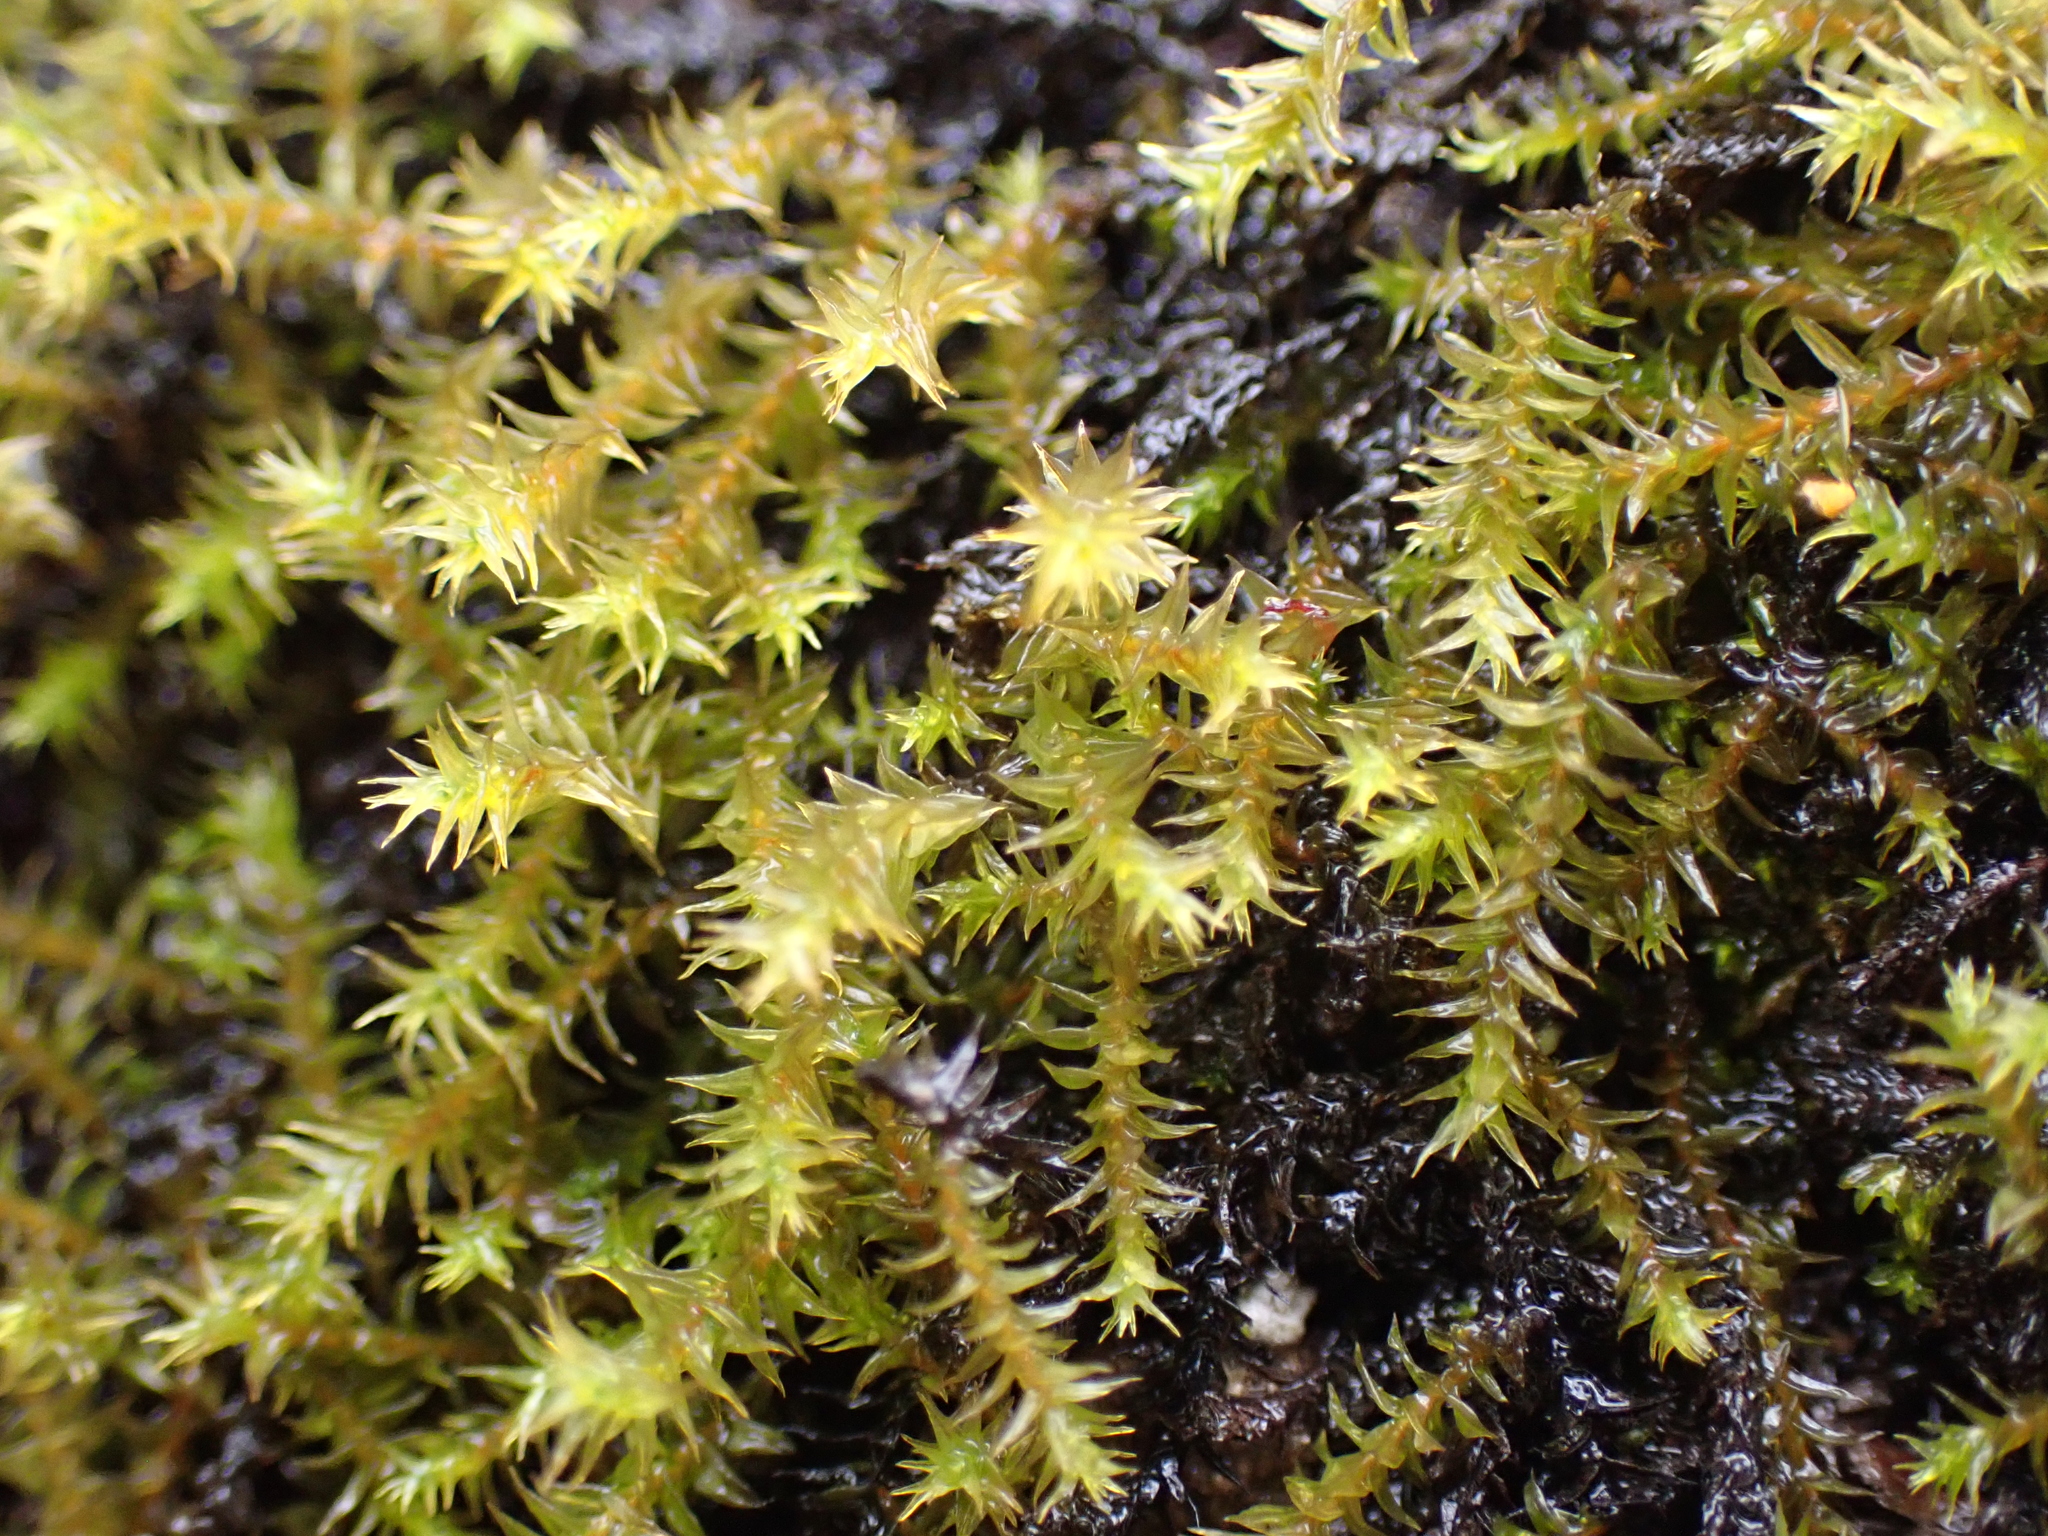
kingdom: Plantae
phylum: Bryophyta
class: Bryopsida
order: Pottiales
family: Pottiaceae
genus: Triquetrella
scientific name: Triquetrella papillata
